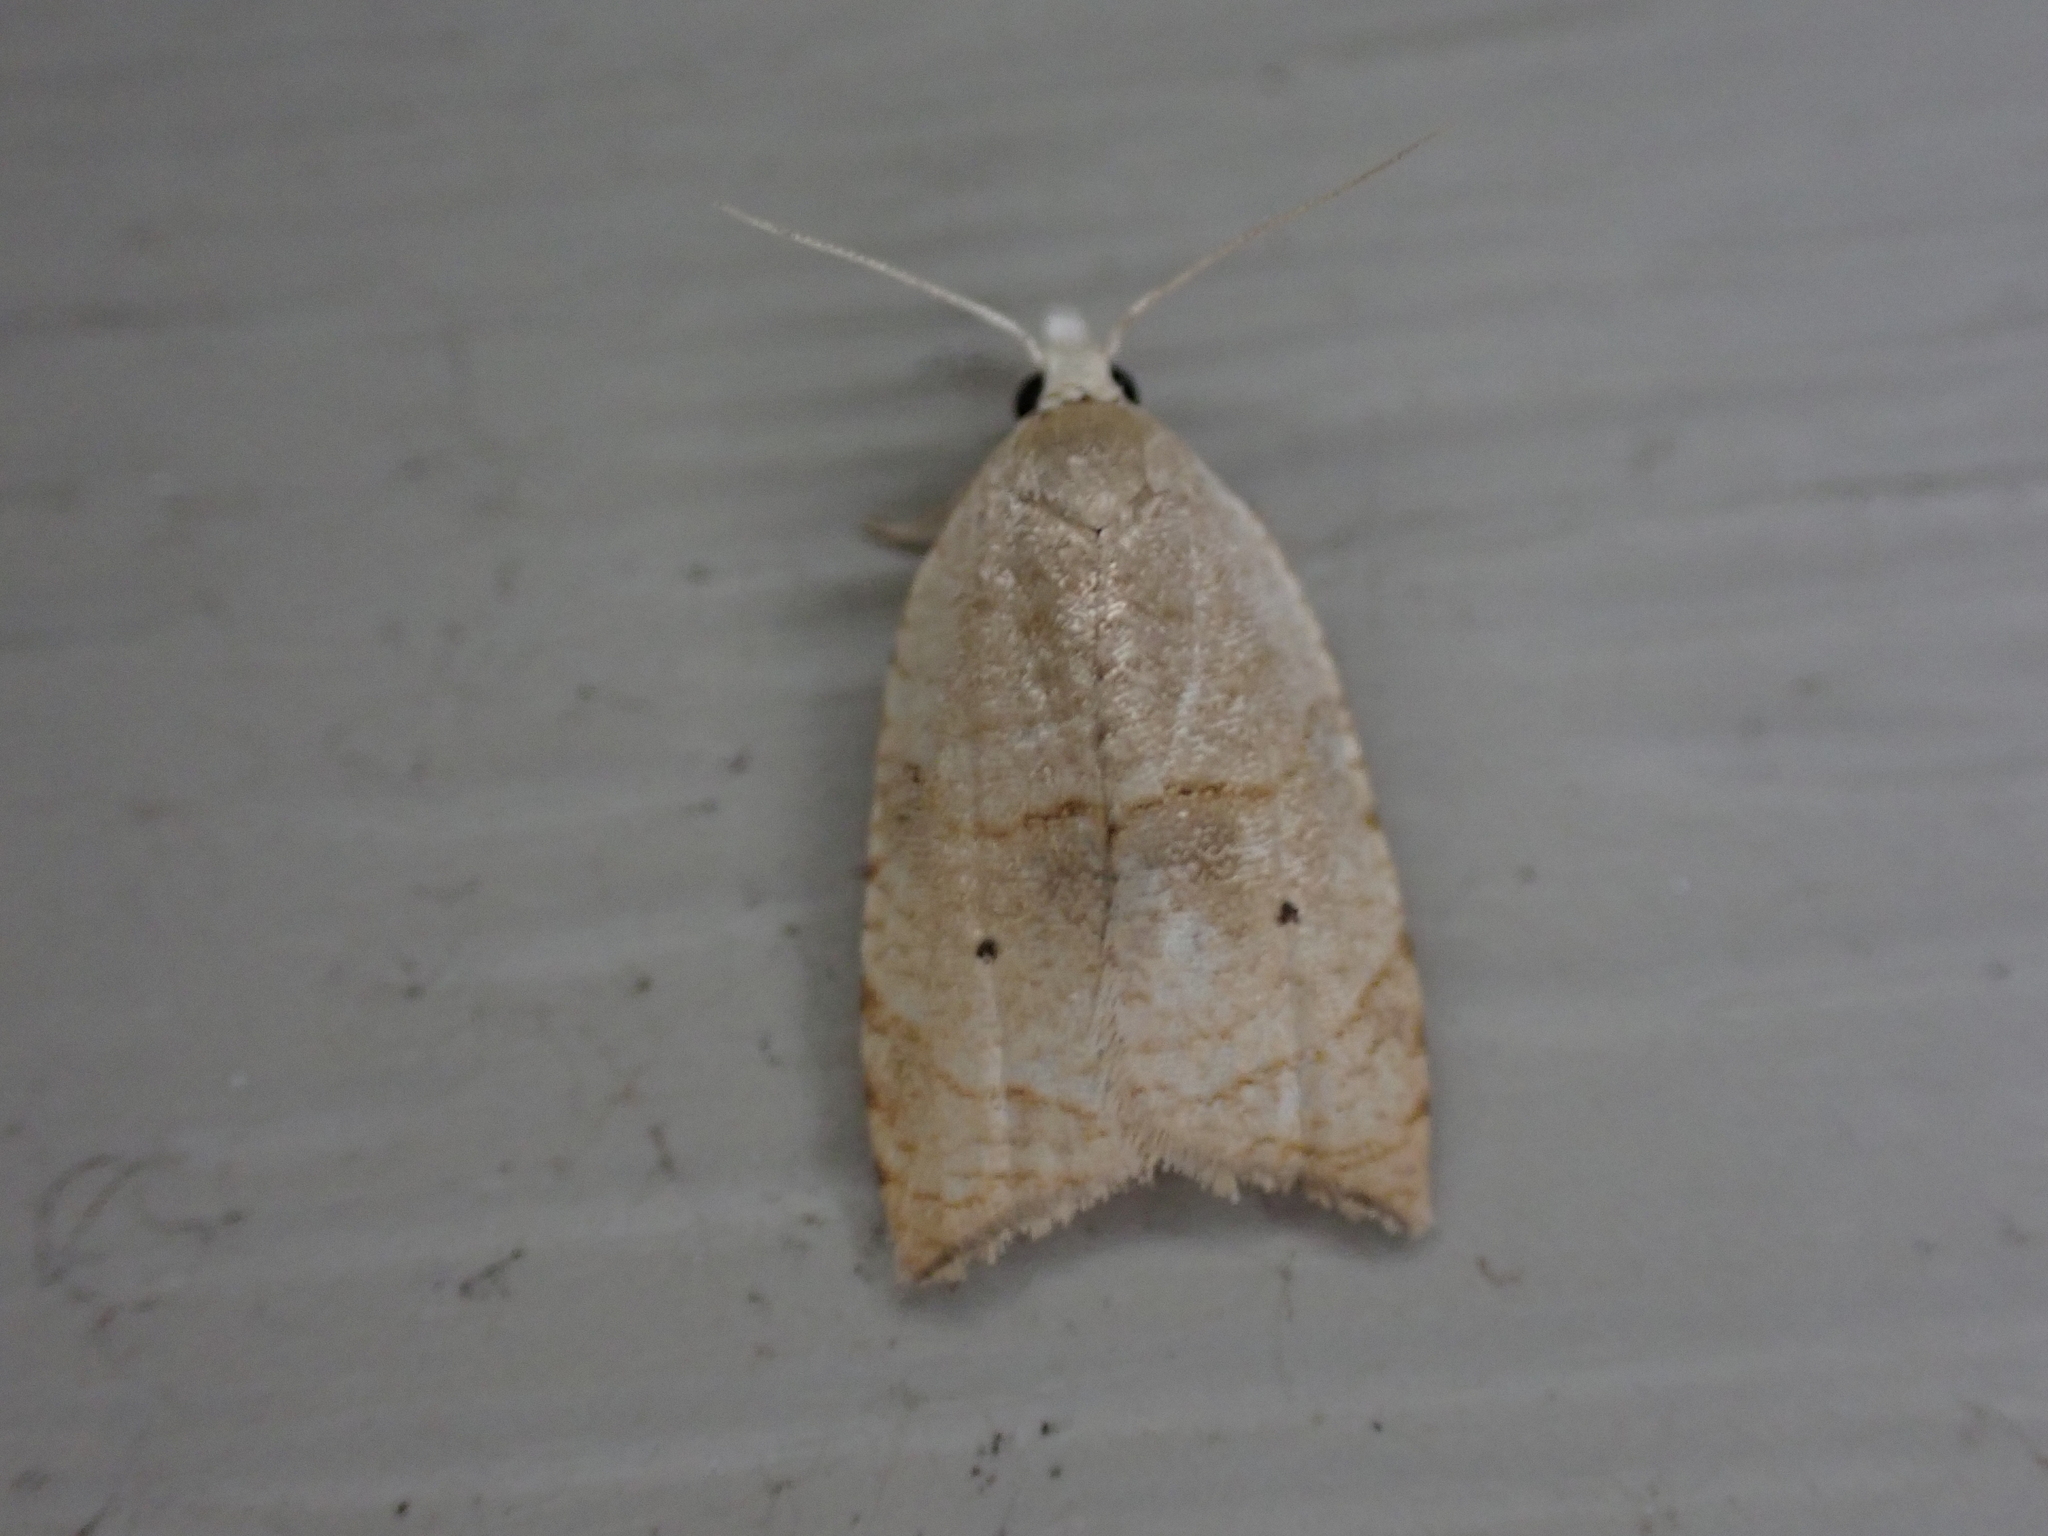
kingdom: Animalia
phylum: Arthropoda
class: Insecta
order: Lepidoptera
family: Tortricidae
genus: Coelostathma
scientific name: Coelostathma discopunctana
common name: Batman moth
